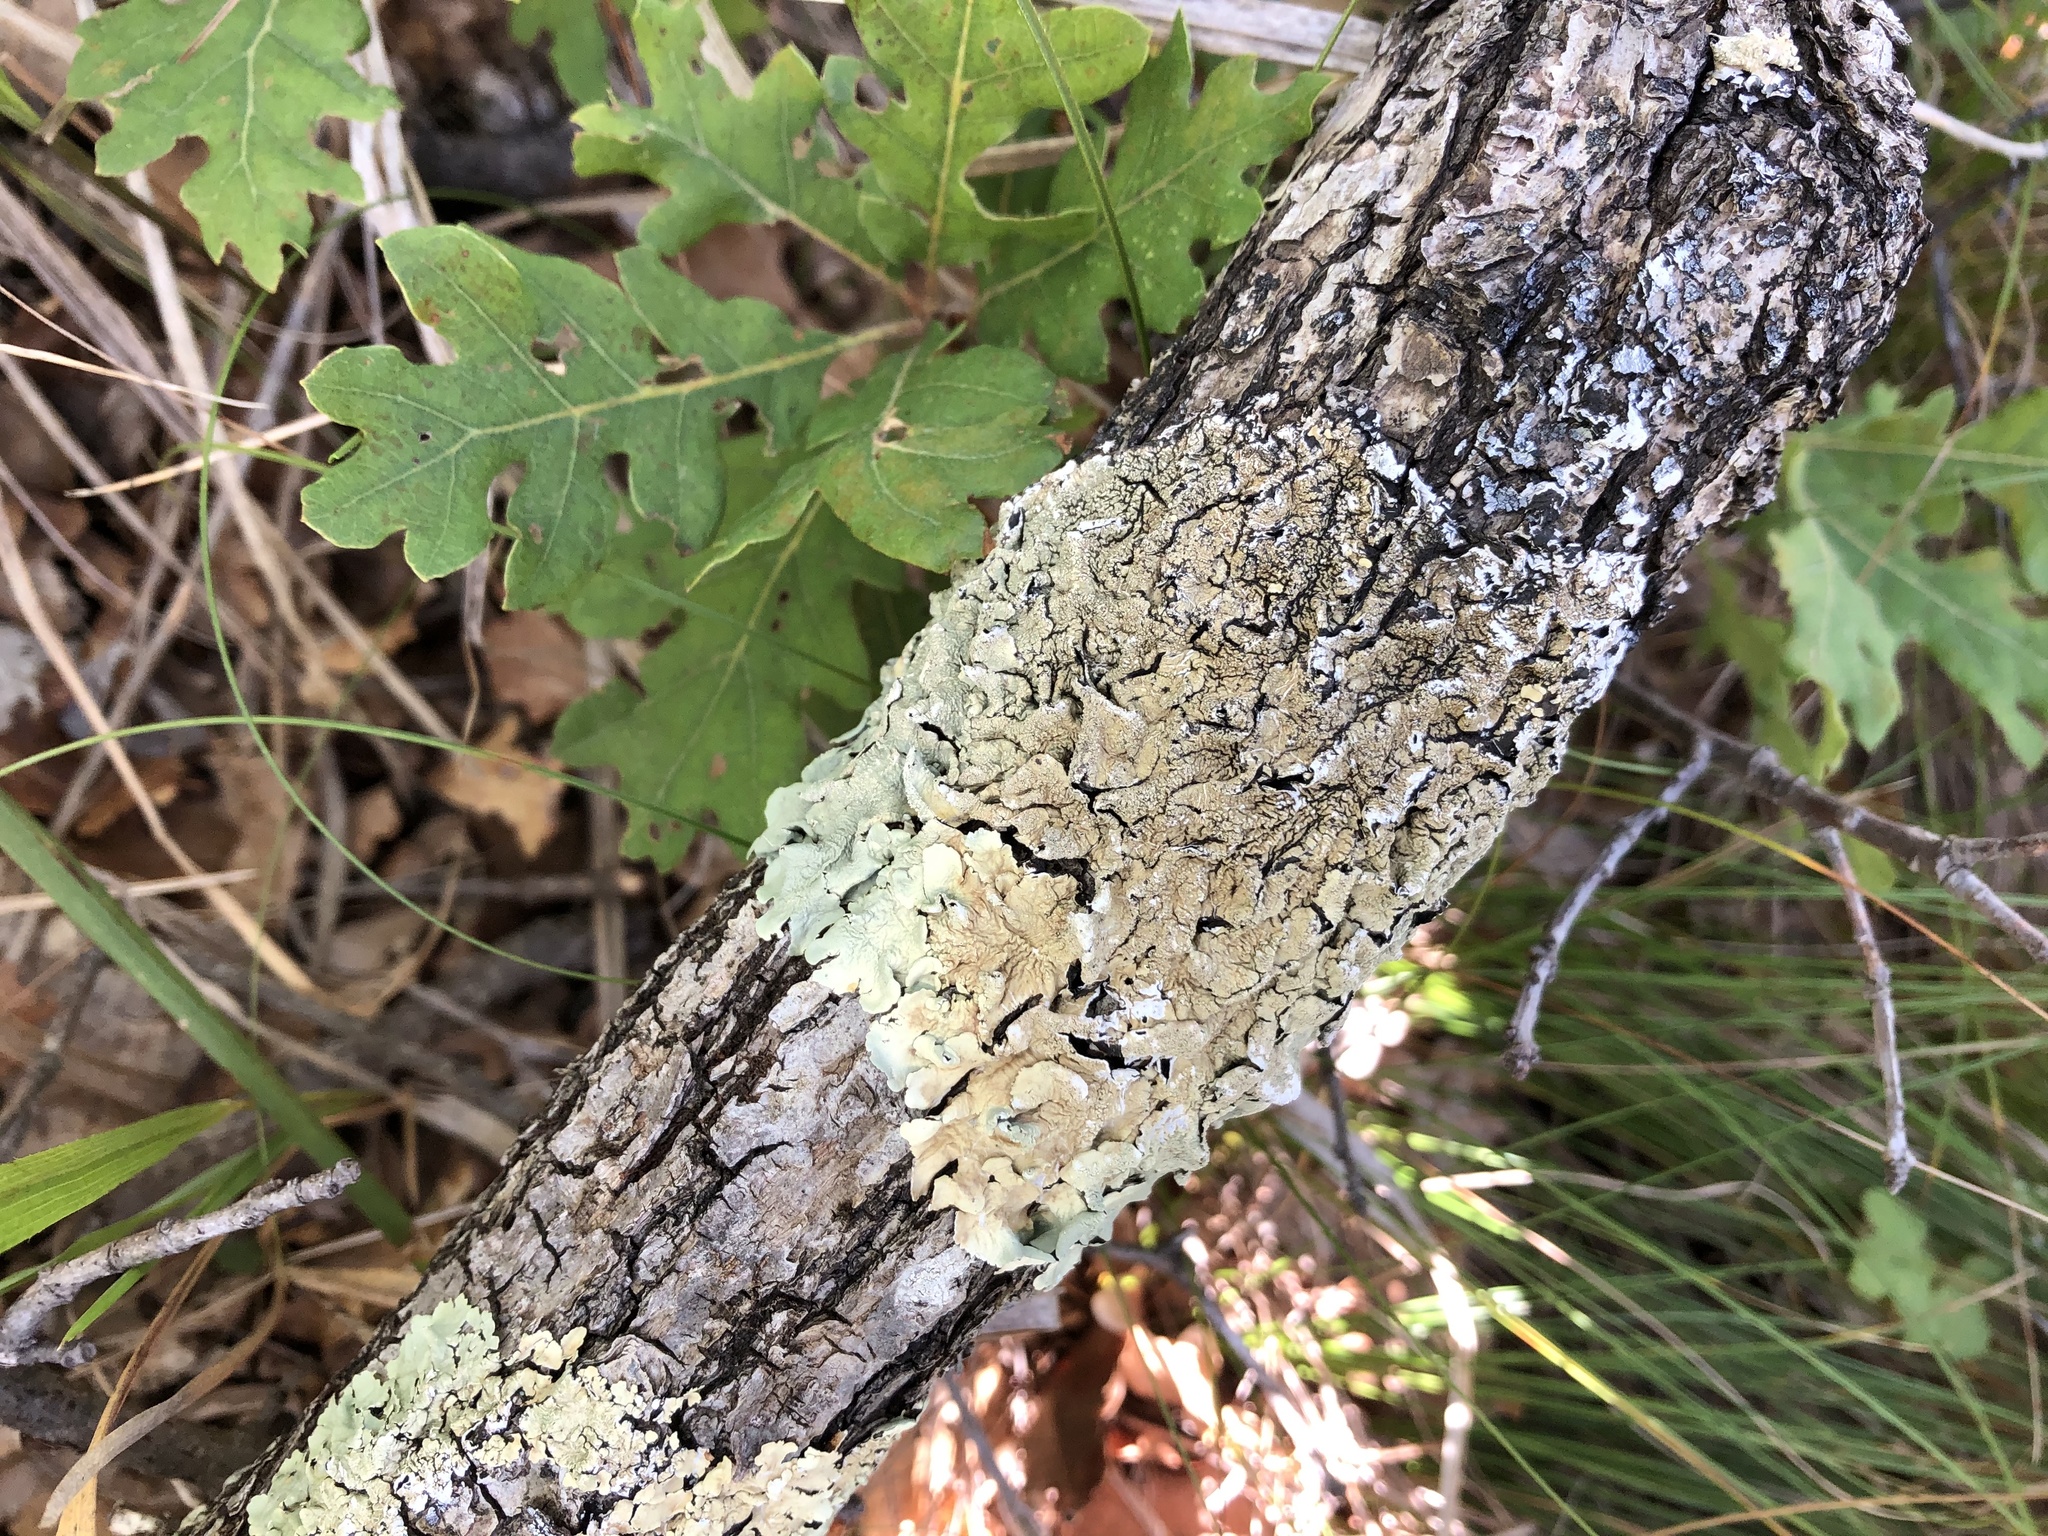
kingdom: Fungi
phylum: Ascomycota
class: Lecanoromycetes
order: Lecanorales
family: Parmeliaceae
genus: Flavoparmelia
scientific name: Flavoparmelia caperata
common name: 40-mile per hour lichen
